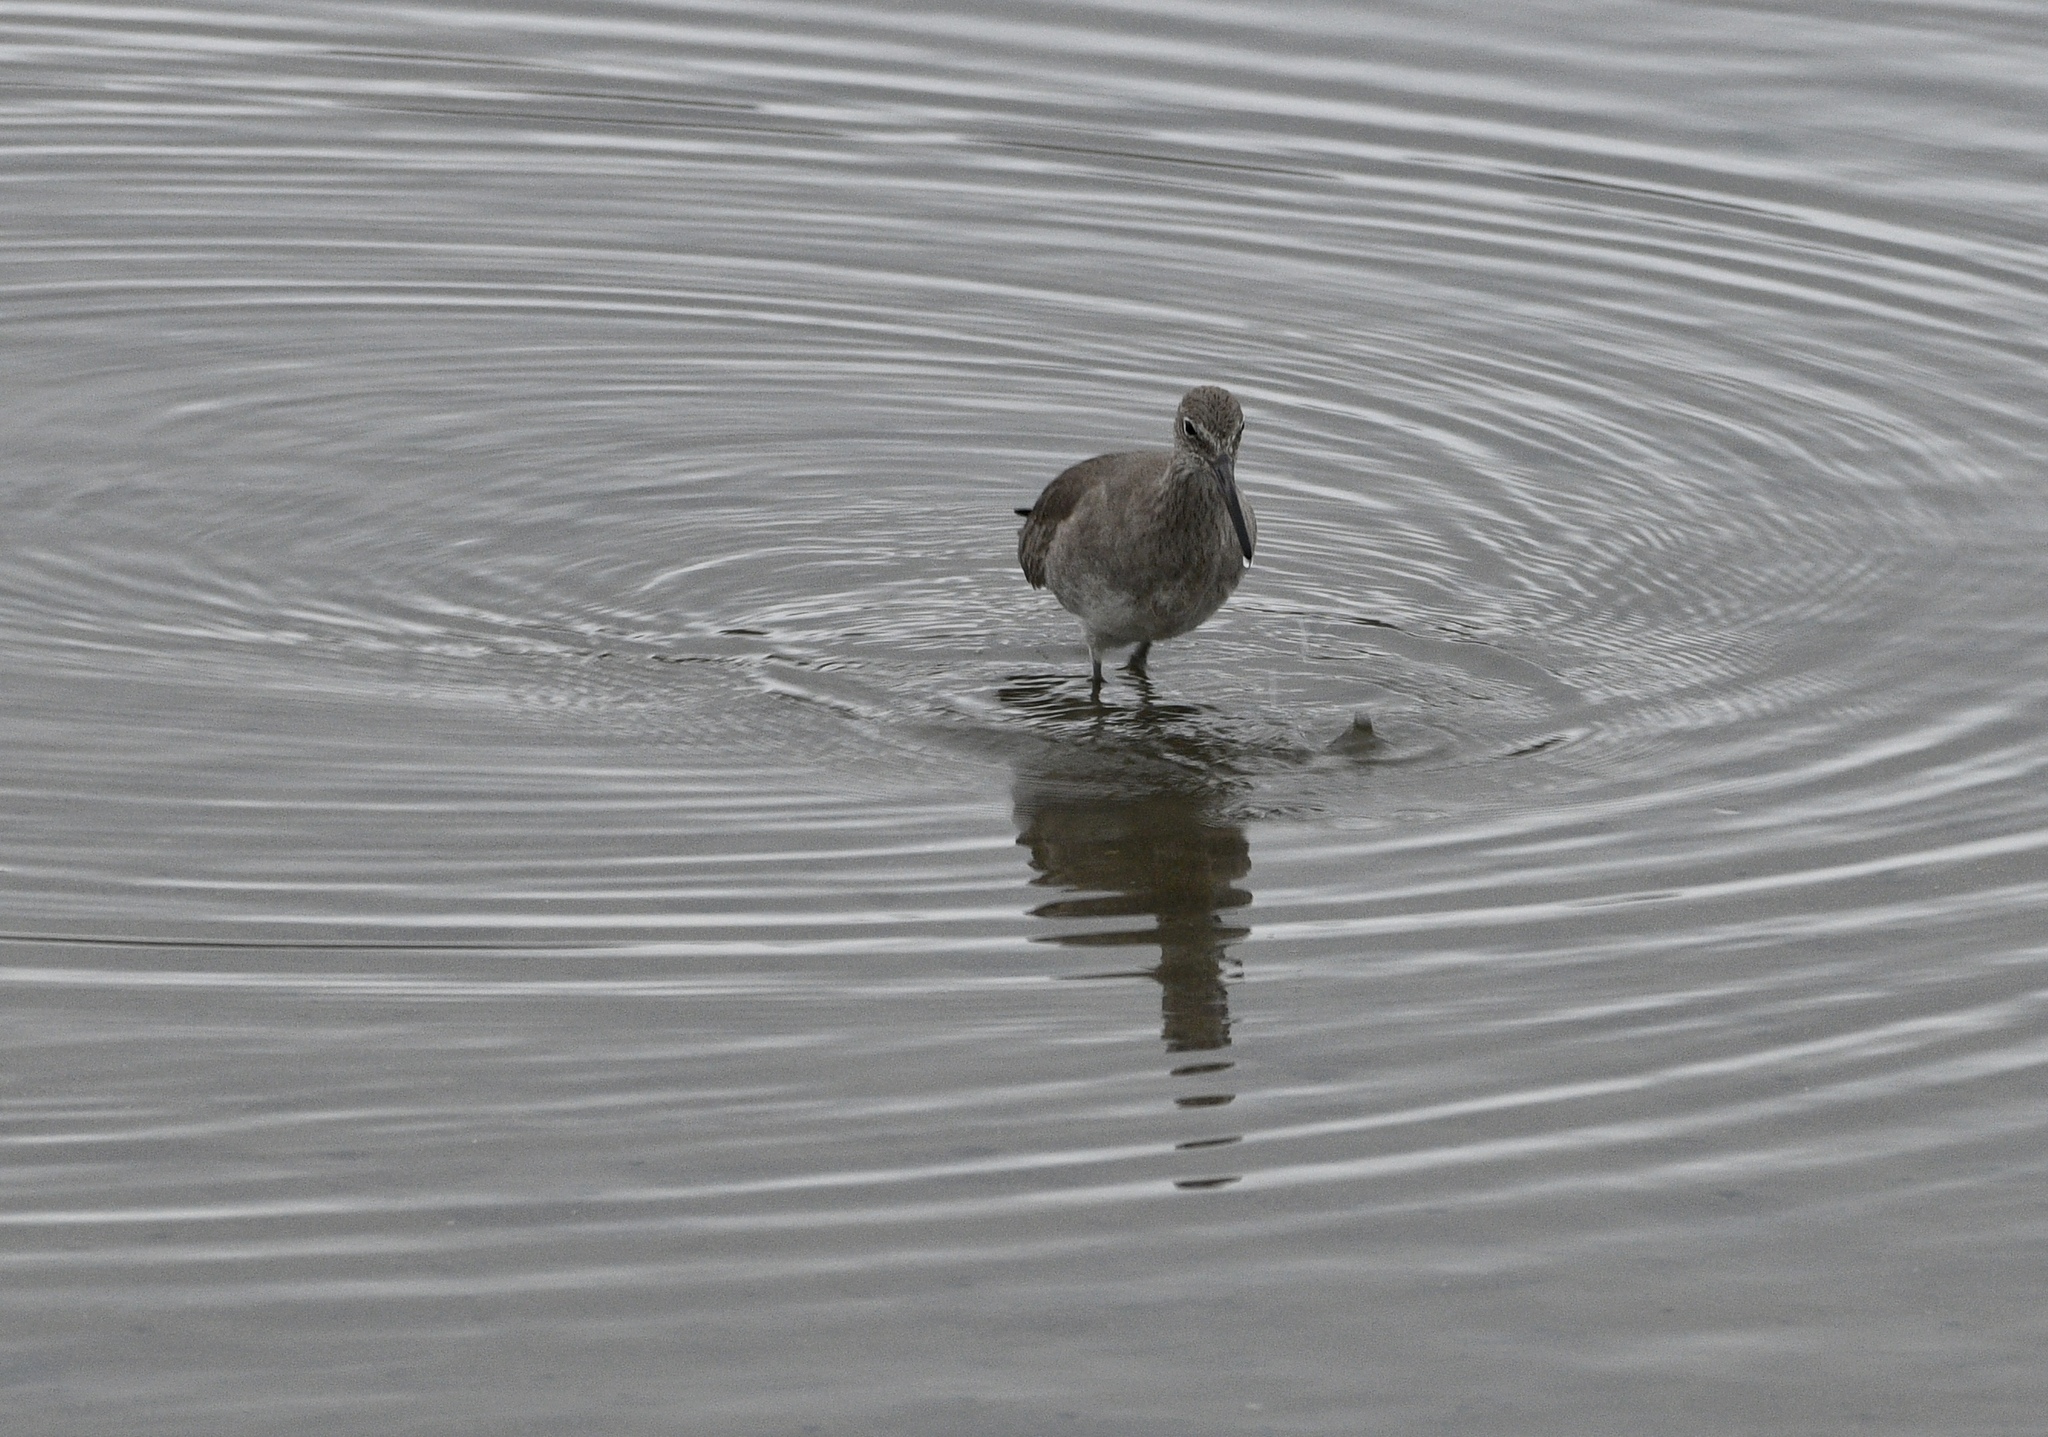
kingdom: Animalia
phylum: Chordata
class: Aves
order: Charadriiformes
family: Scolopacidae
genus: Tringa
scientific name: Tringa semipalmata
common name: Willet
